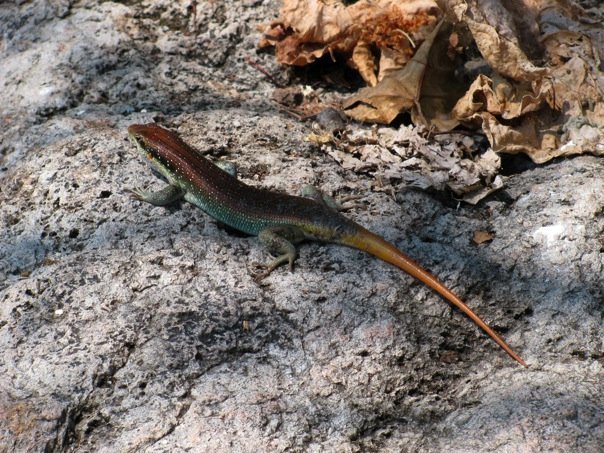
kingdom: Animalia
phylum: Chordata
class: Squamata
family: Scincidae
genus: Trachylepis
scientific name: Trachylepis margaritifera
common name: Rainbow skink
